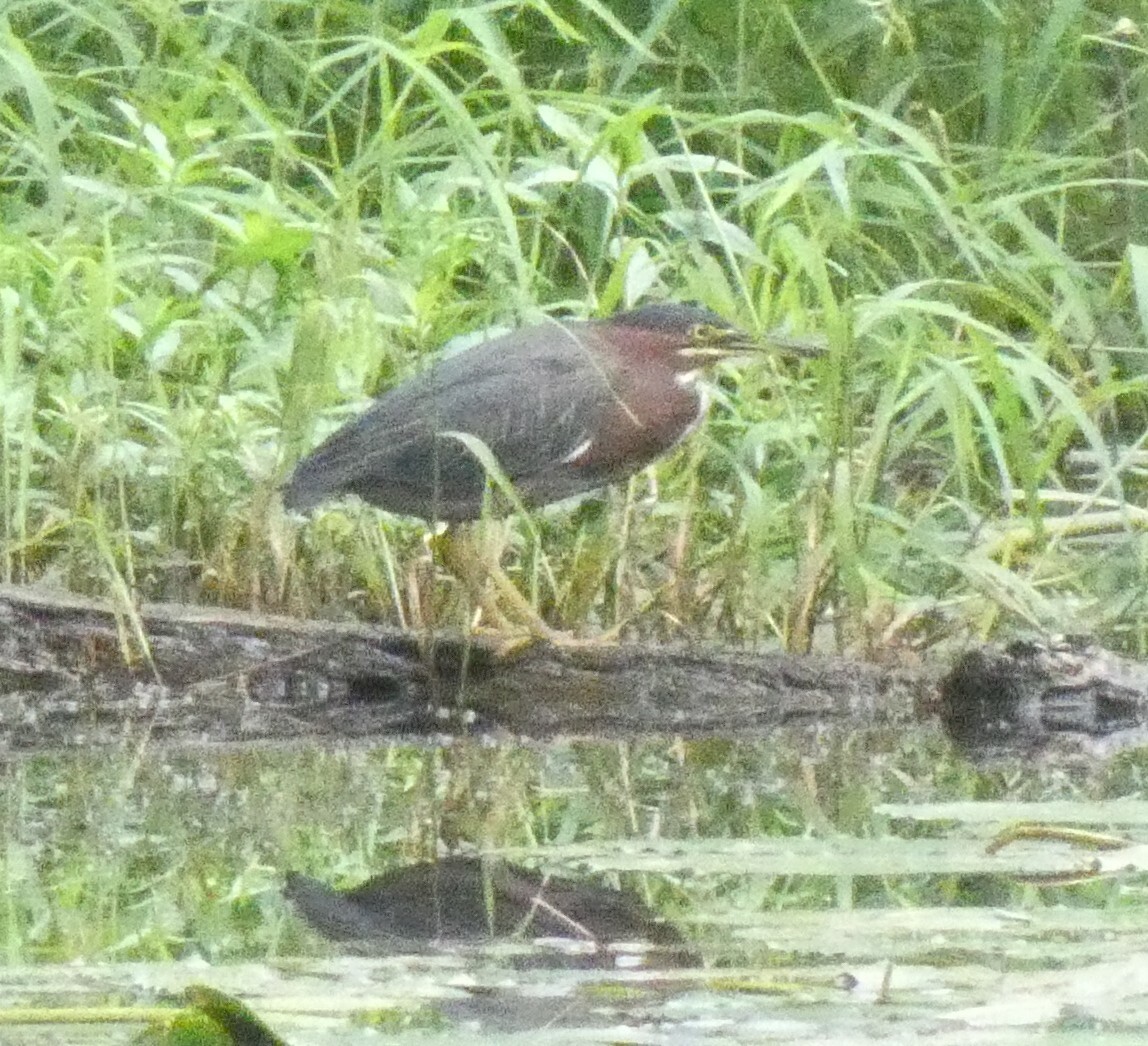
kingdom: Animalia
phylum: Chordata
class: Aves
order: Pelecaniformes
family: Ardeidae
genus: Butorides
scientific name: Butorides virescens
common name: Green heron
